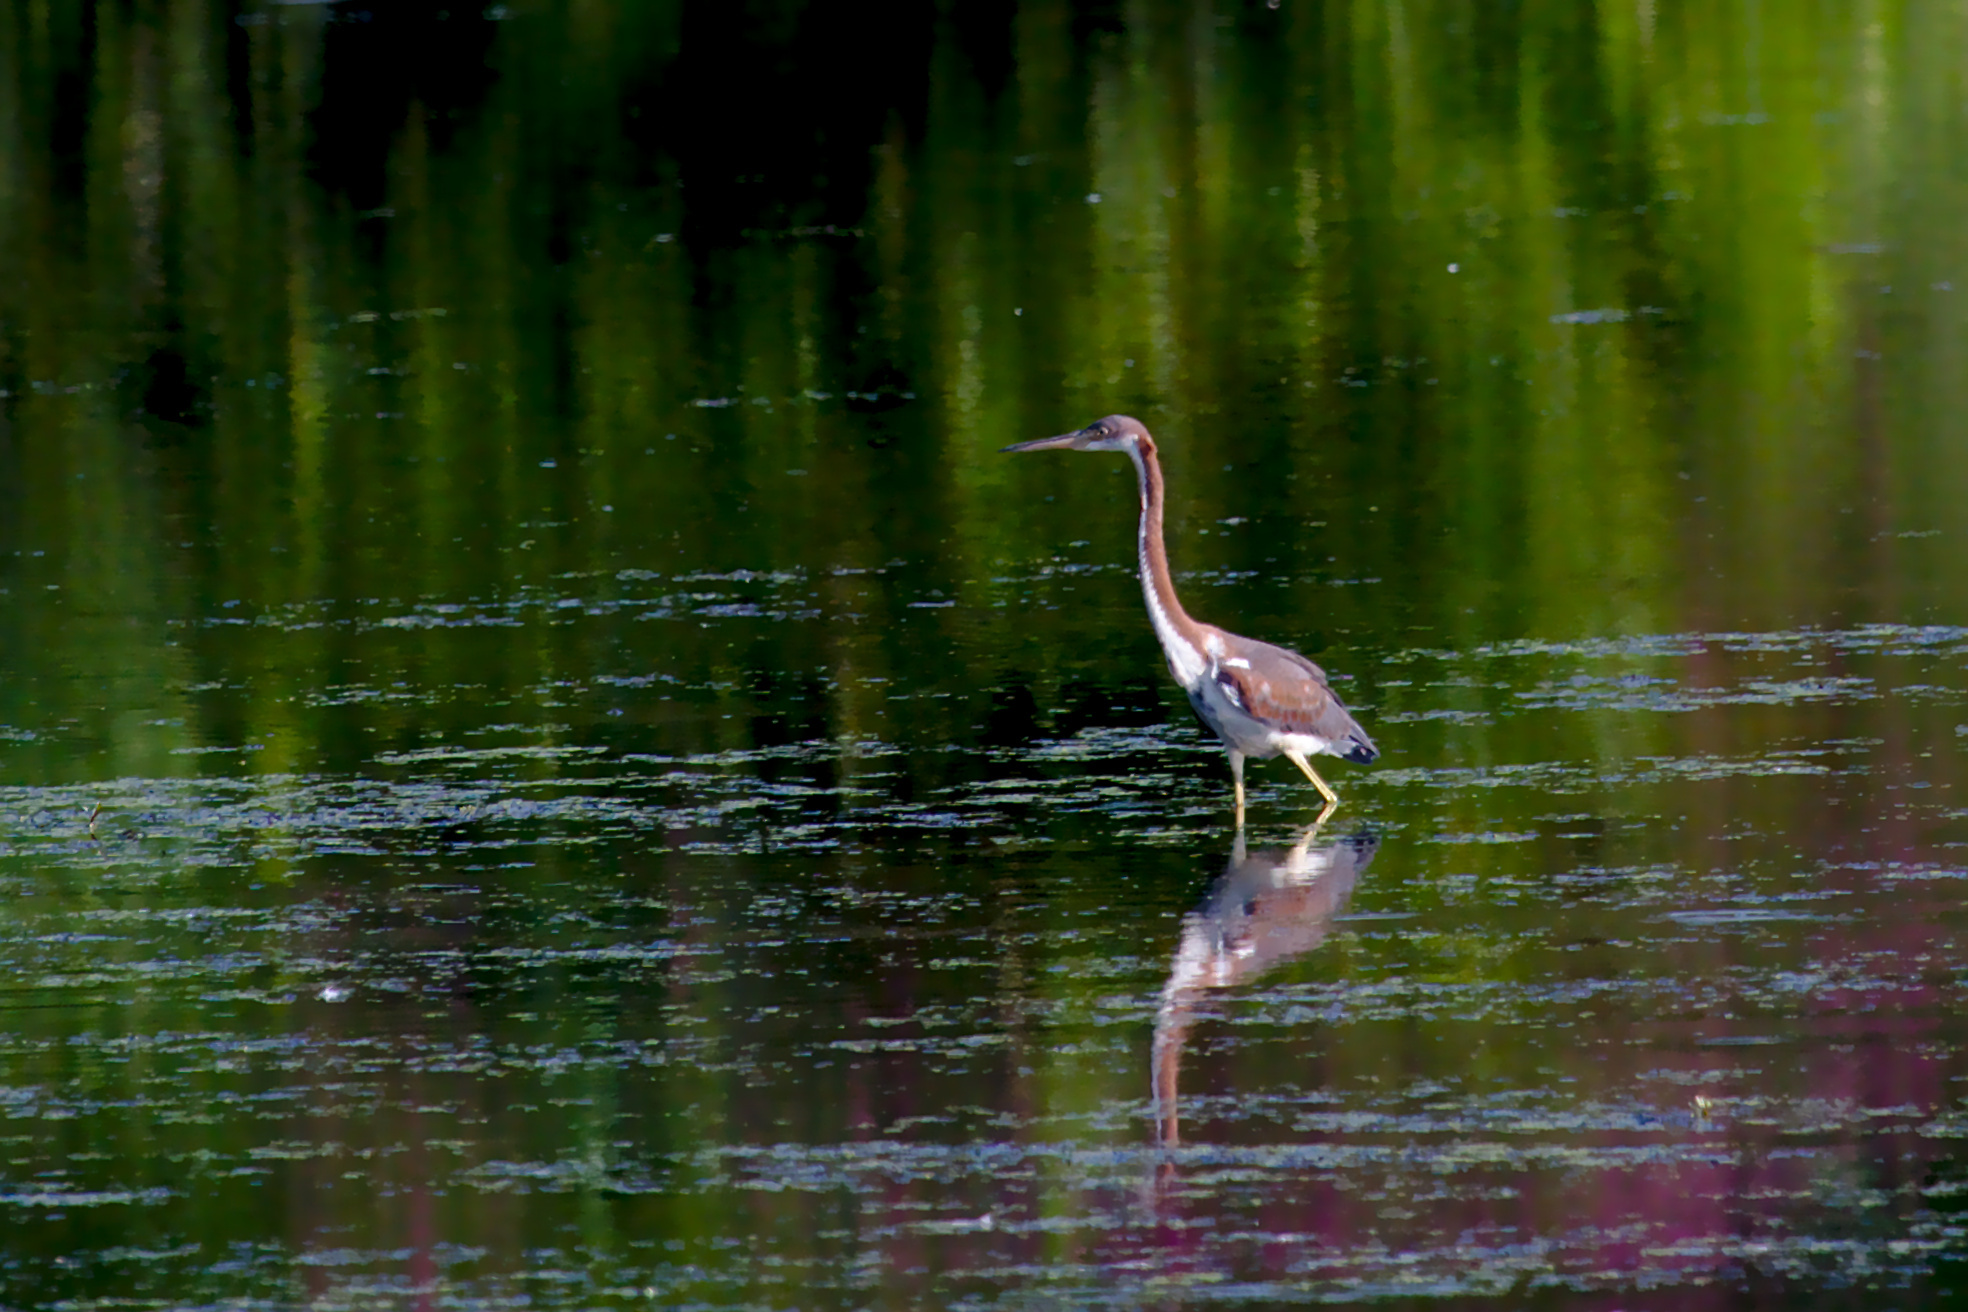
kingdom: Animalia
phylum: Chordata
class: Aves
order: Pelecaniformes
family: Ardeidae
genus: Egretta
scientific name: Egretta tricolor
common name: Tricolored heron
